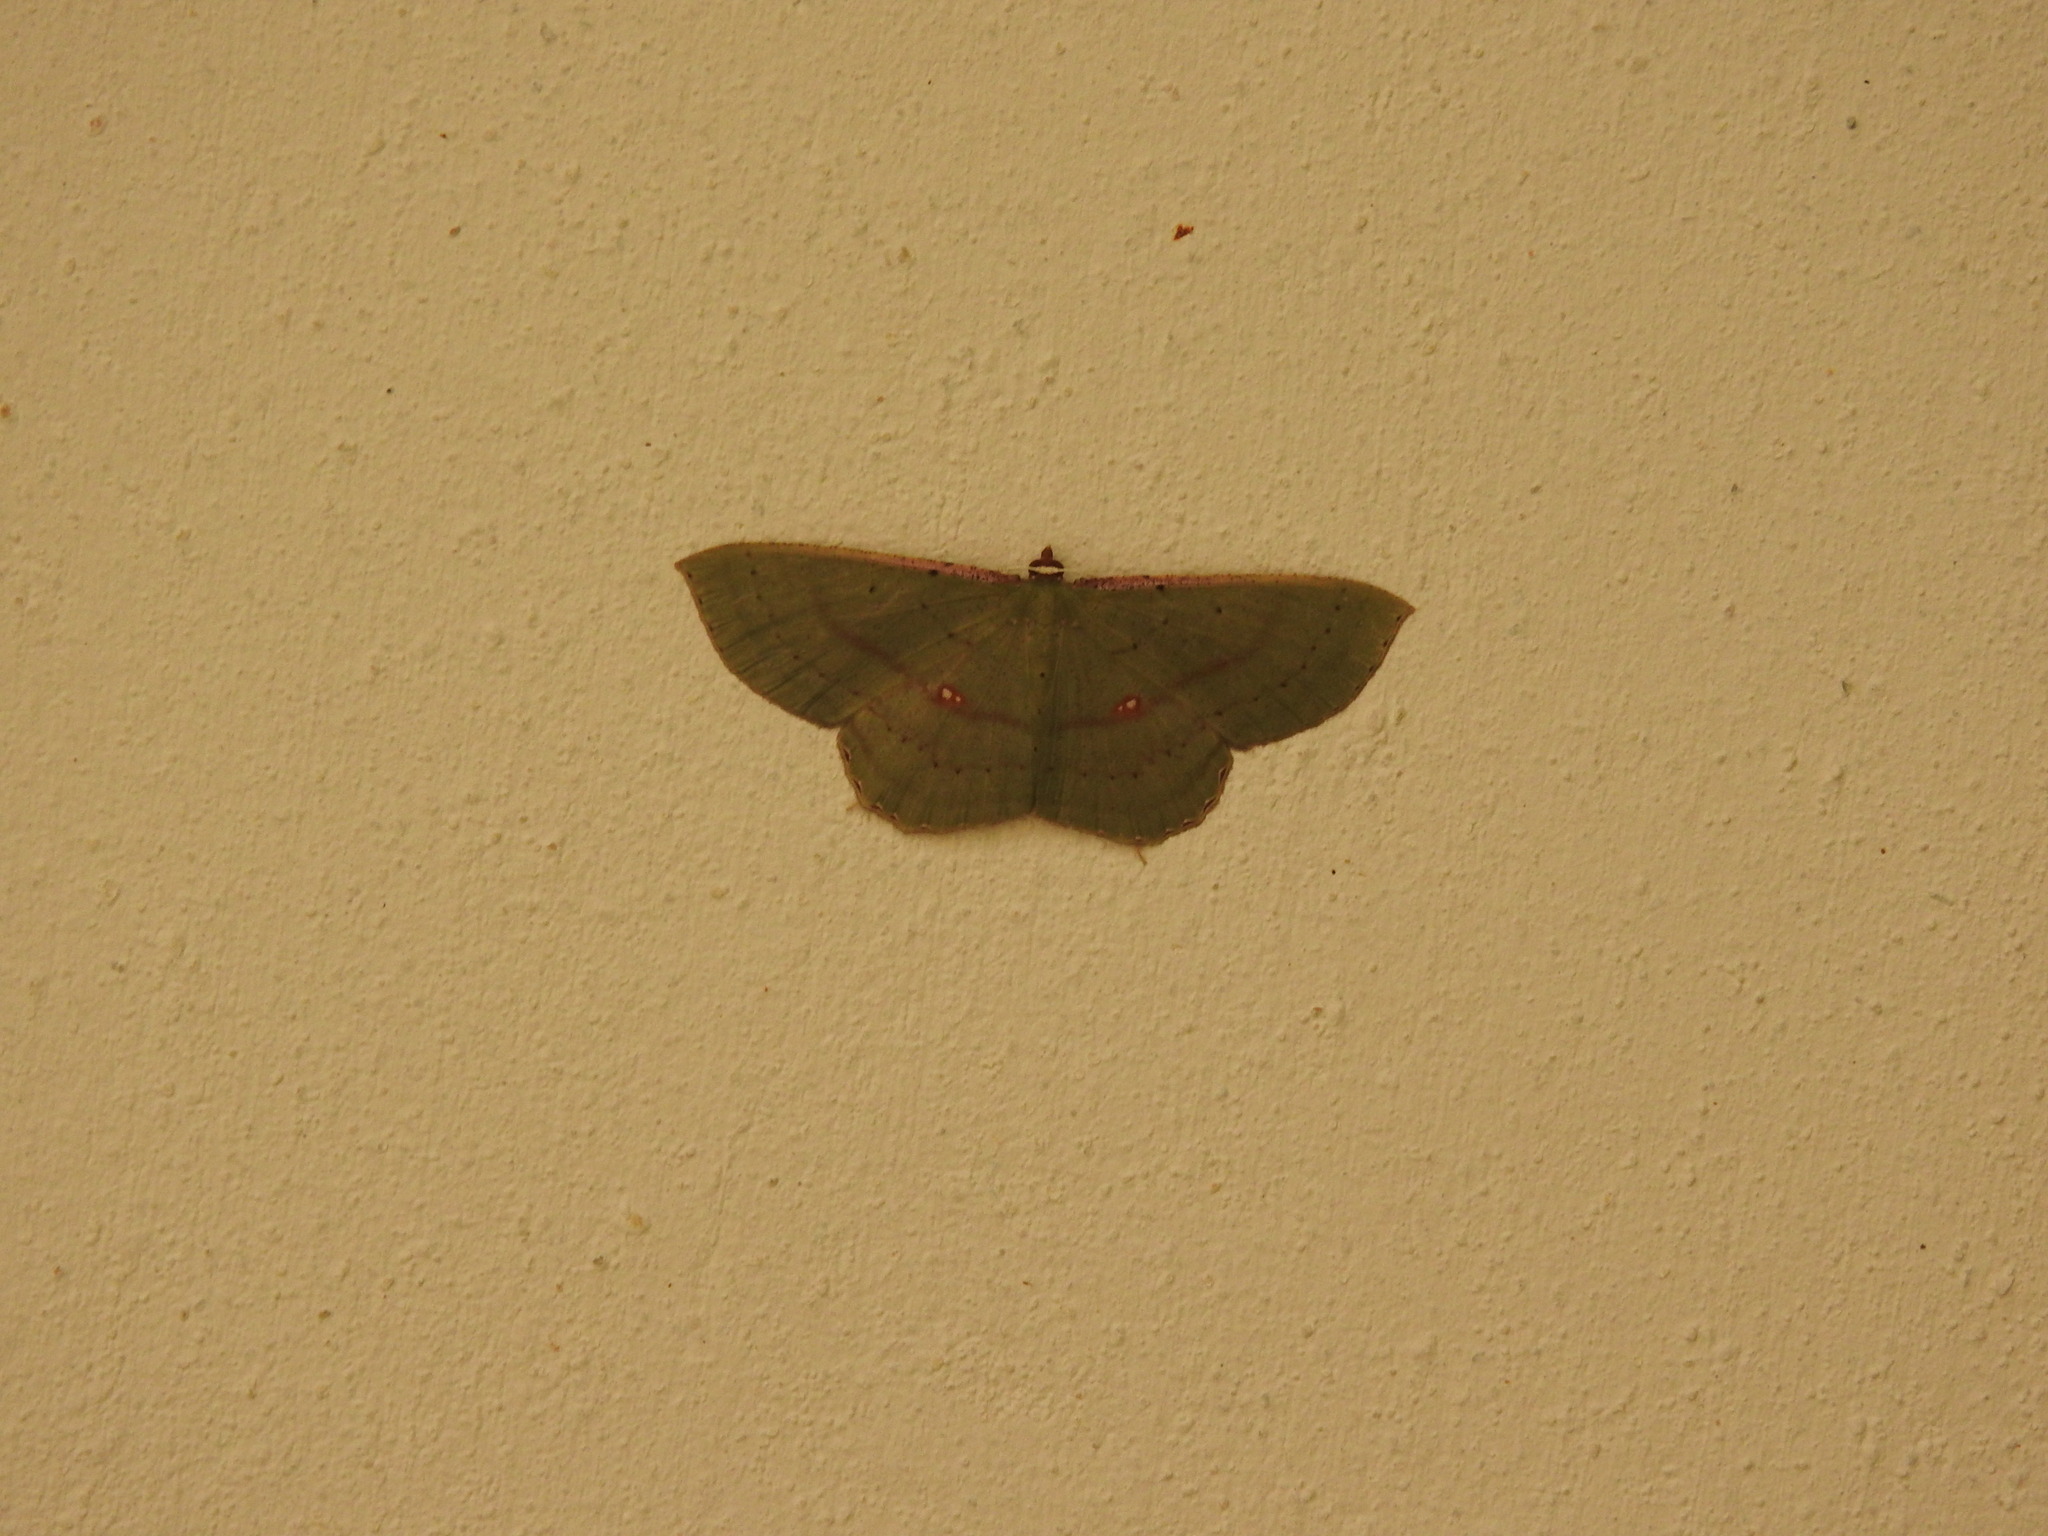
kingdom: Animalia
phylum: Arthropoda
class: Insecta
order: Lepidoptera
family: Geometridae
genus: Ametris
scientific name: Ametris nitocris
